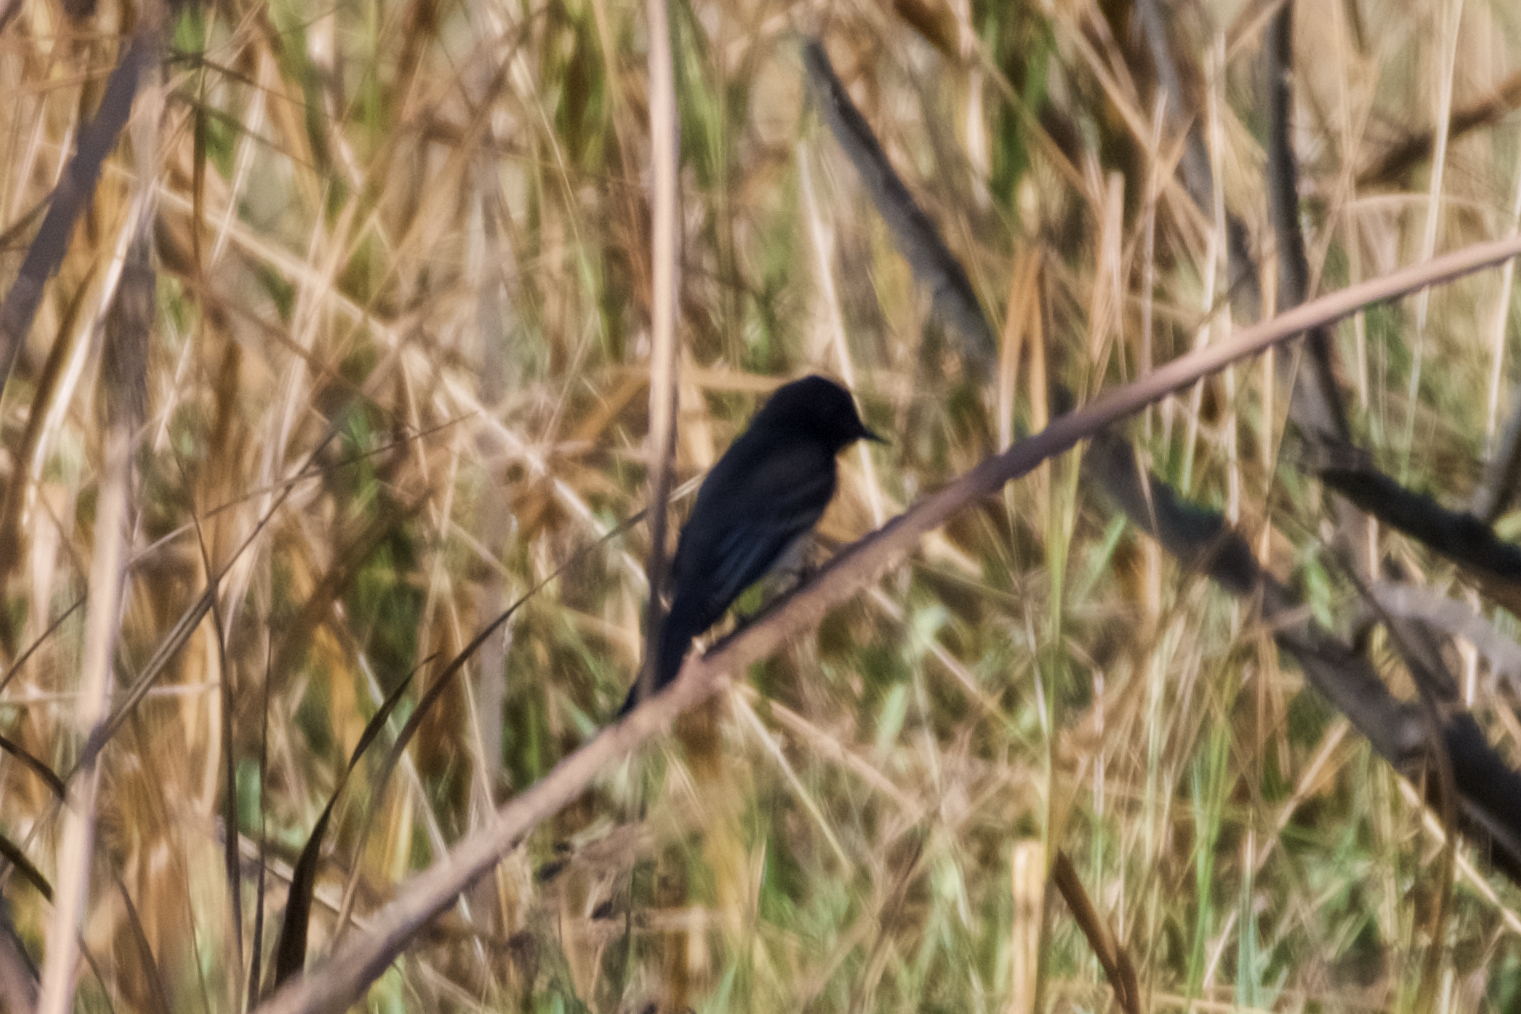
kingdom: Animalia
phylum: Chordata
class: Aves
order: Passeriformes
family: Tyrannidae
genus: Sayornis
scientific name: Sayornis nigricans
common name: Black phoebe
